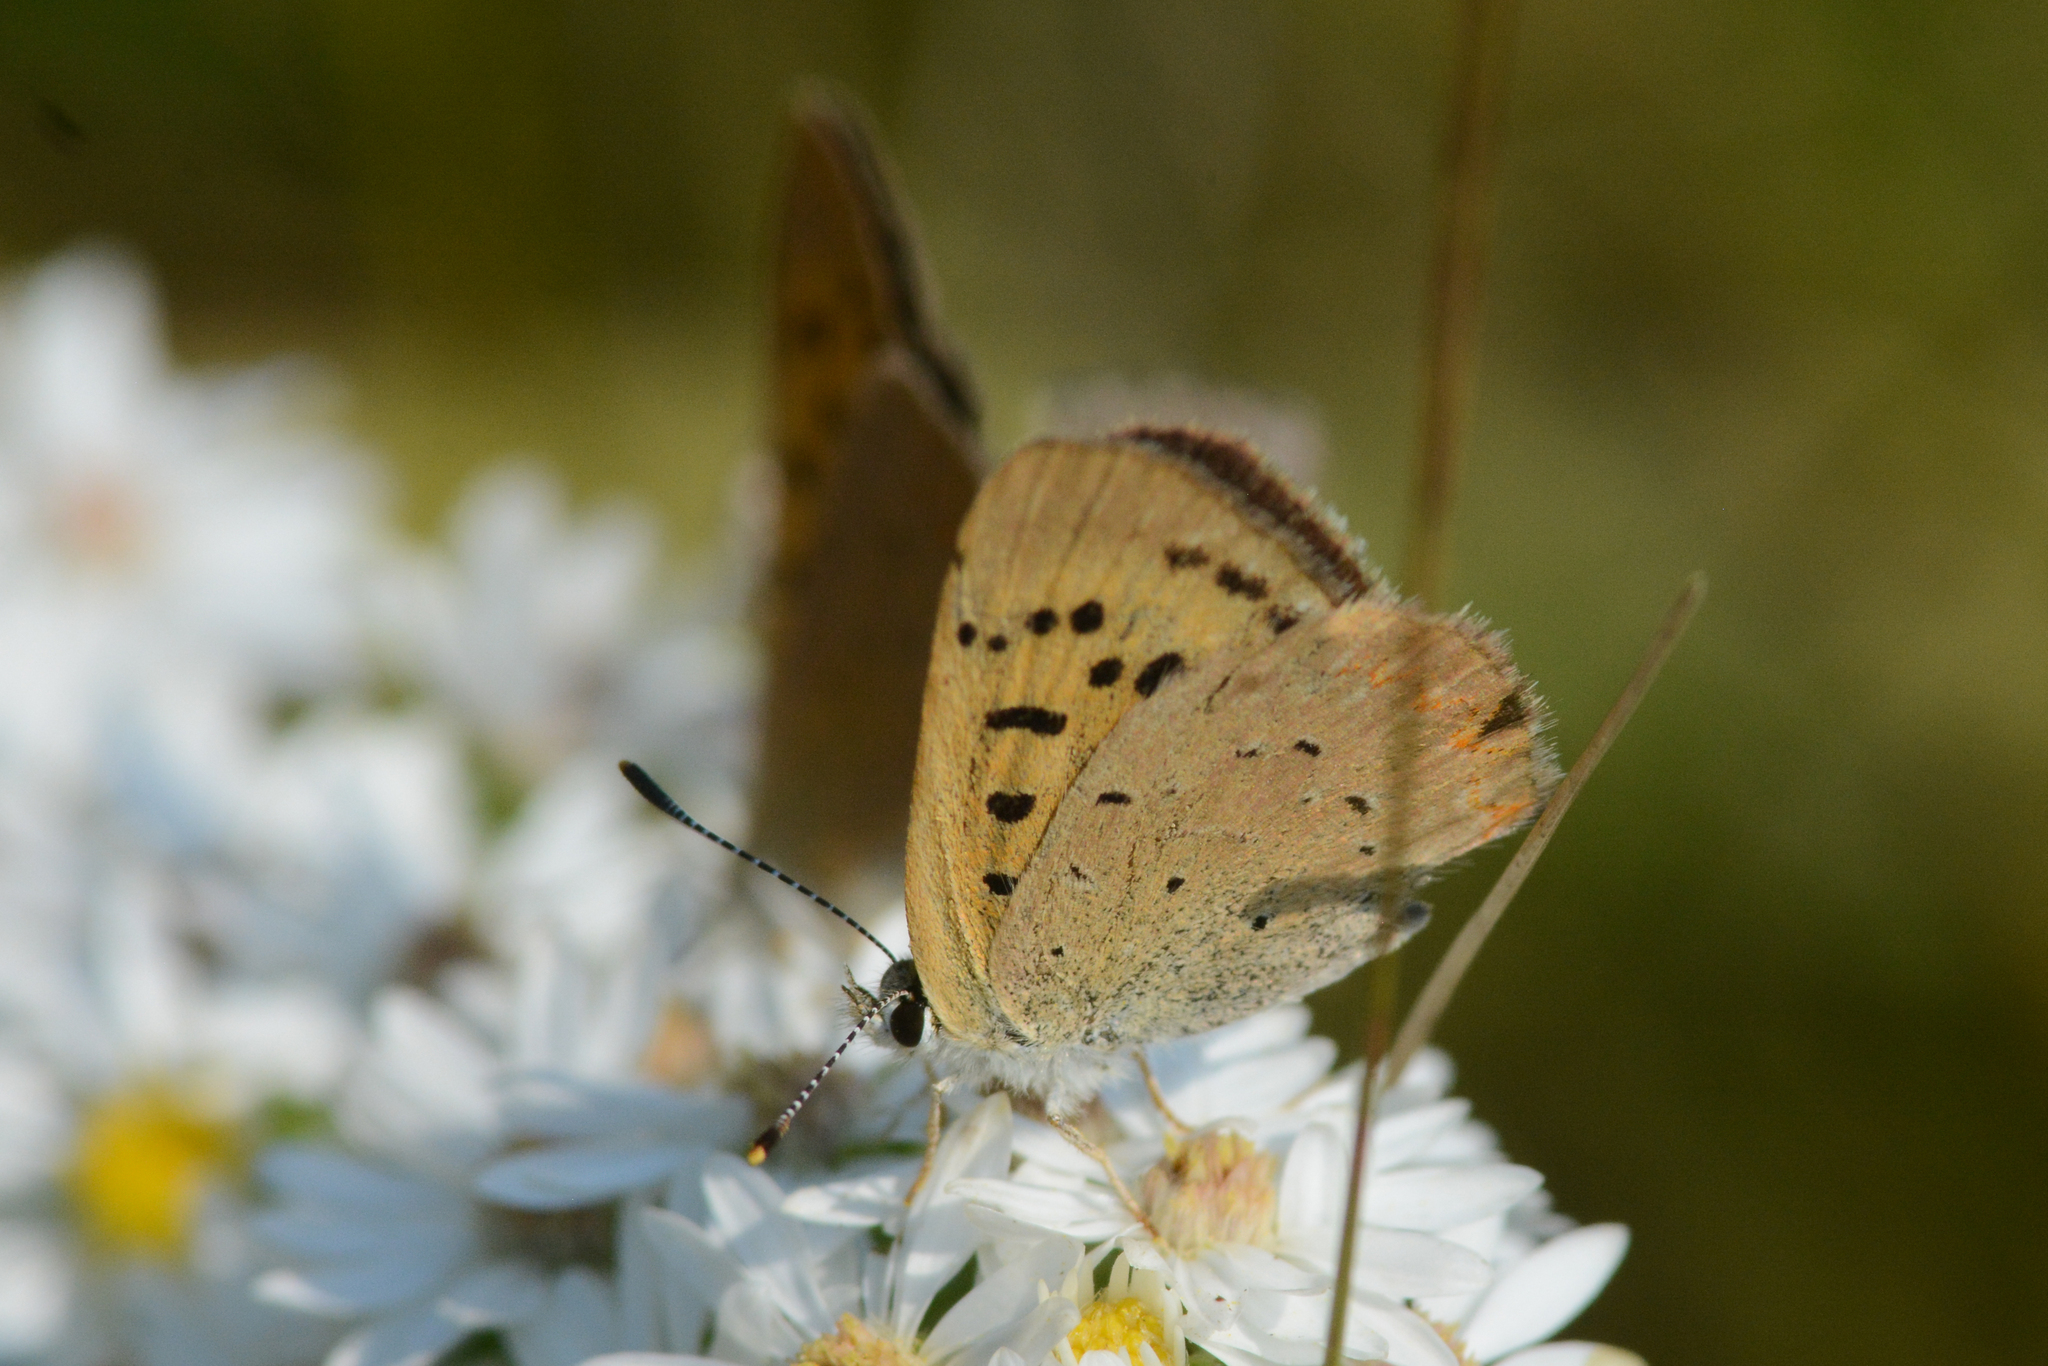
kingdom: Animalia
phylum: Arthropoda
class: Insecta
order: Lepidoptera
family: Lycaenidae
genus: Tharsalea
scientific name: Tharsalea helloides
